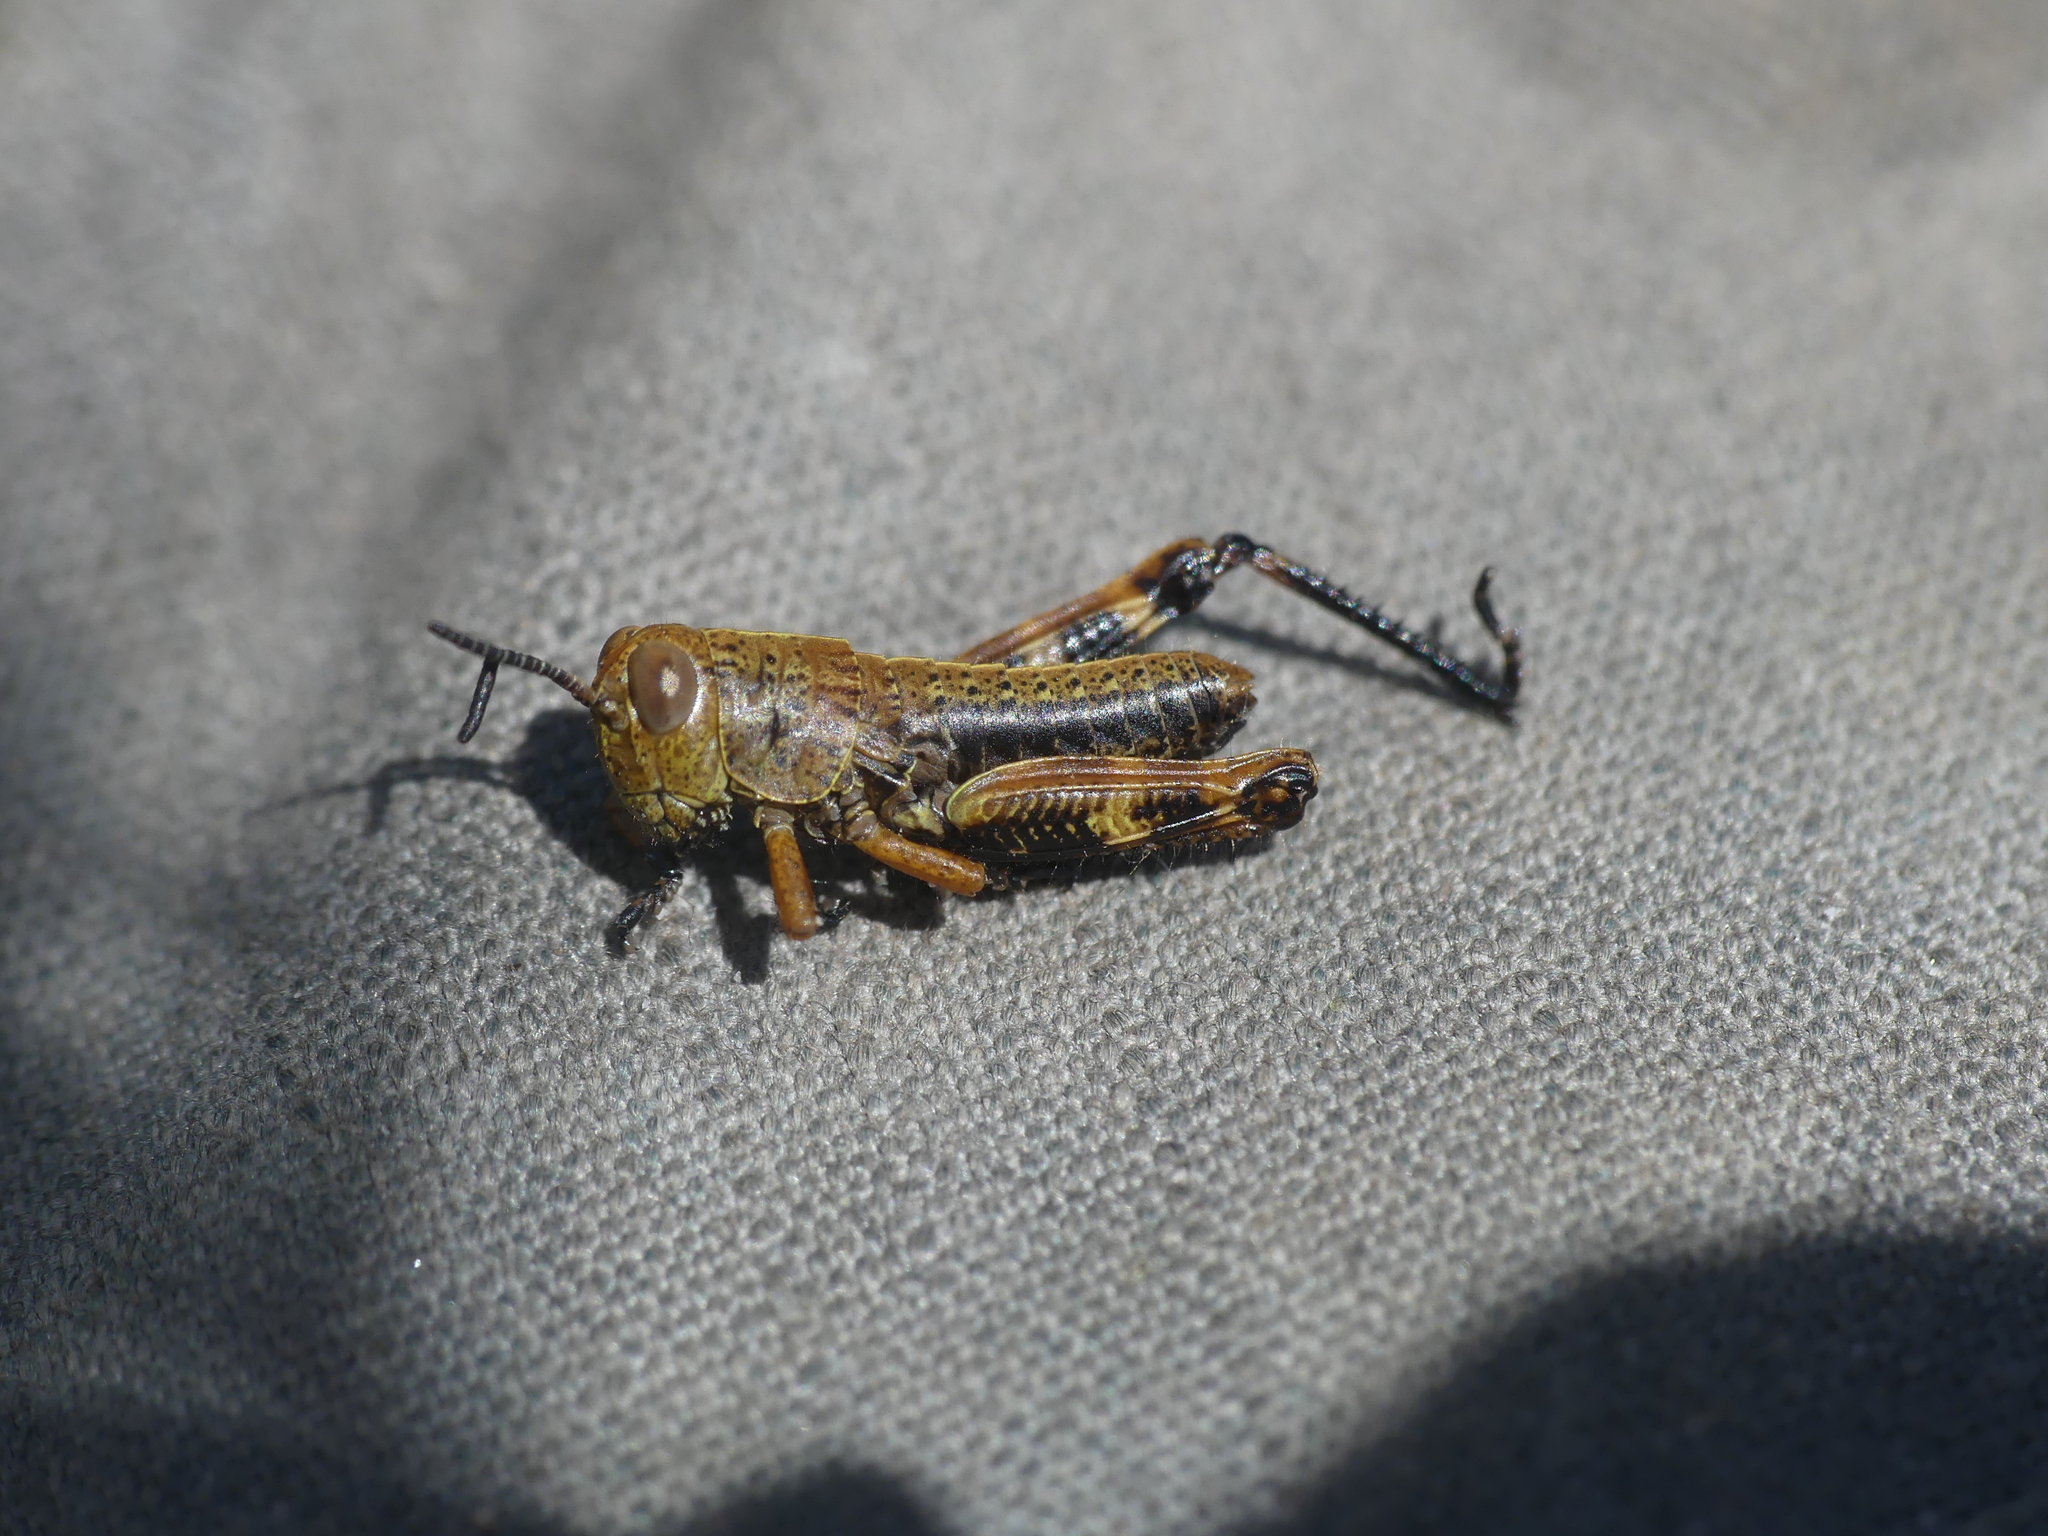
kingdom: Animalia
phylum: Arthropoda
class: Insecta
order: Orthoptera
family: Acrididae
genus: Nadigella
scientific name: Nadigella formosanta
